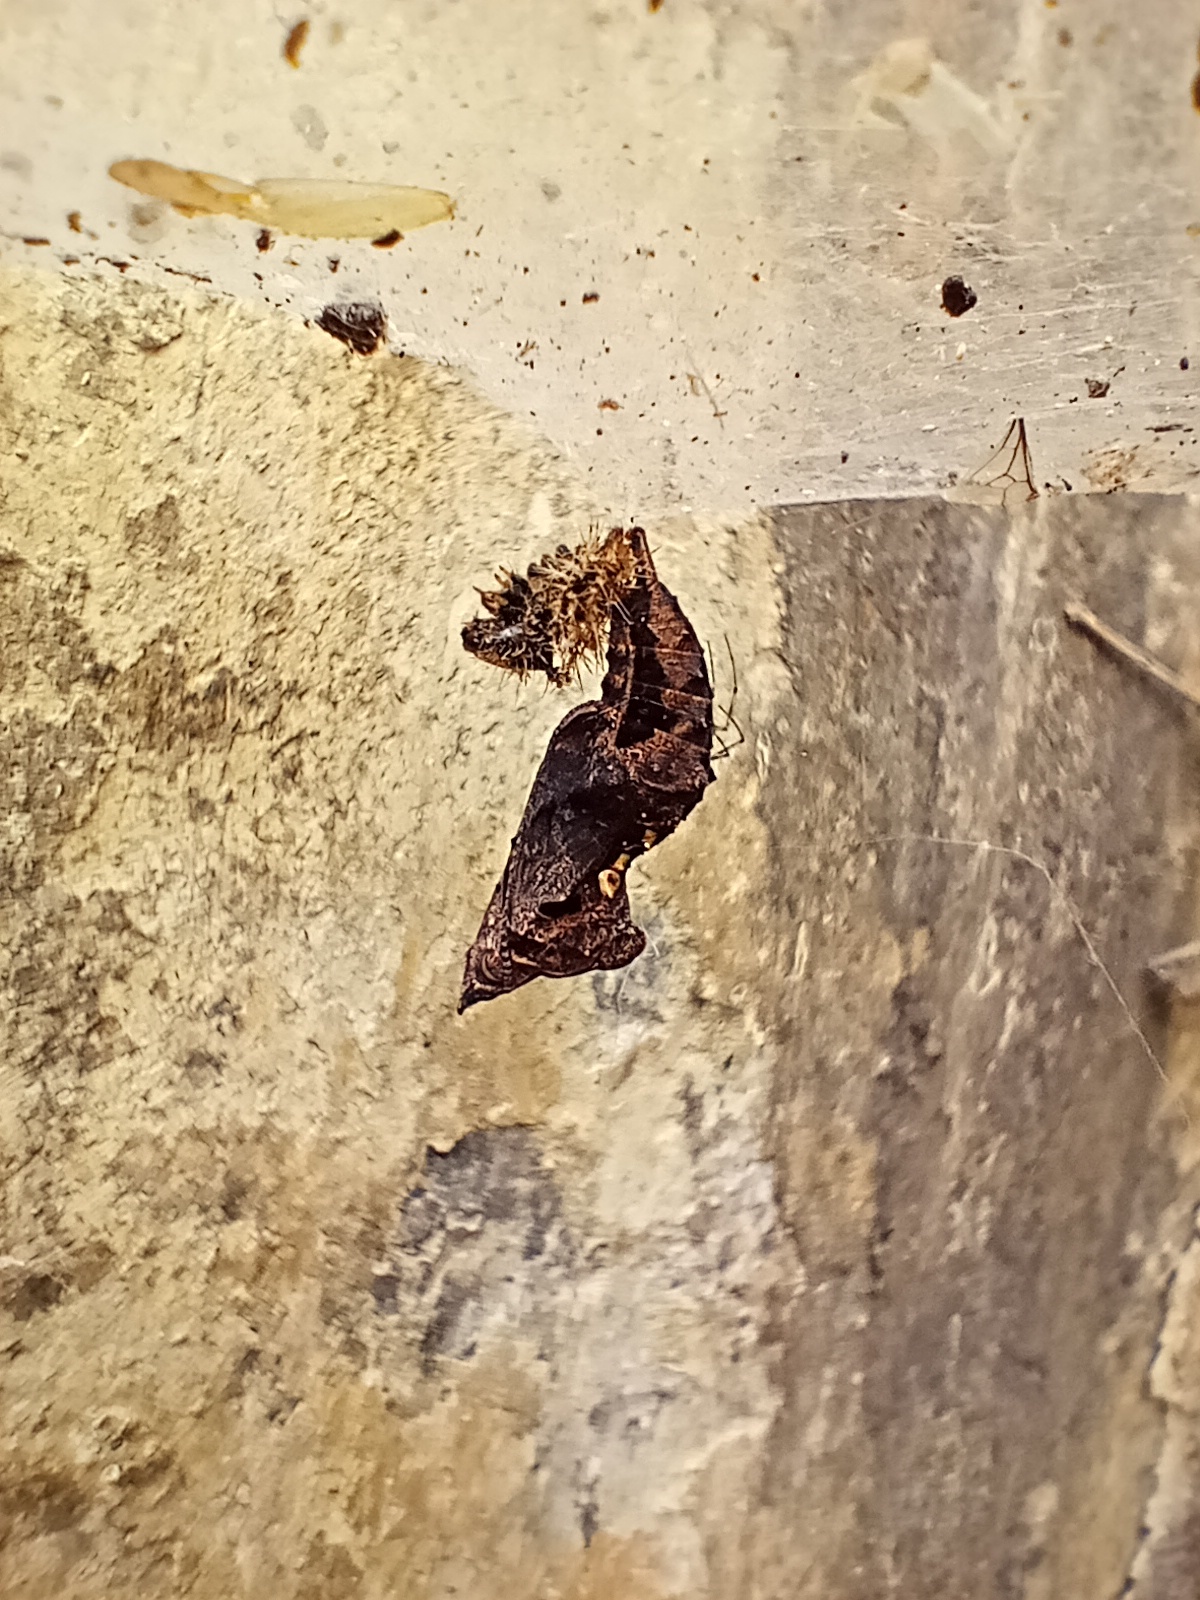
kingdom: Animalia
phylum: Arthropoda
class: Insecta
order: Lepidoptera
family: Nymphalidae
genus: Polygonia
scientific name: Polygonia c-album
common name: Comma
